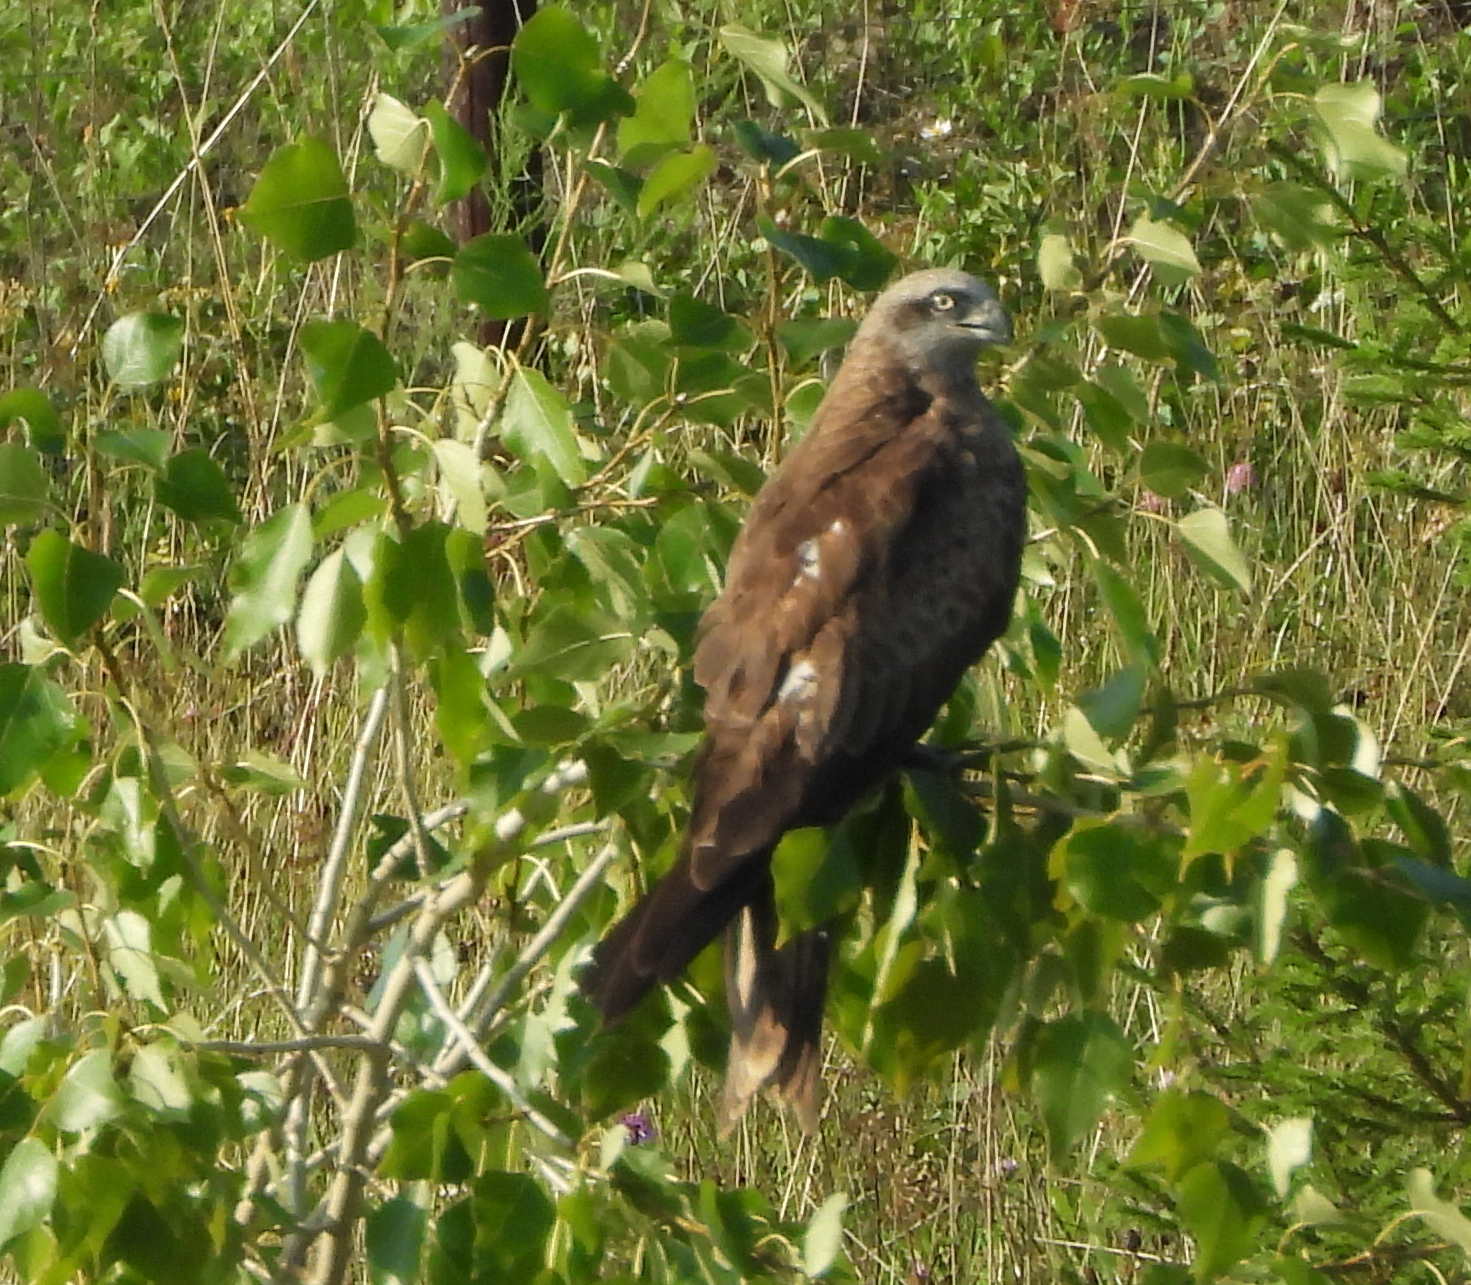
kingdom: Animalia
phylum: Chordata
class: Aves
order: Accipitriformes
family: Accipitridae
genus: Milvus
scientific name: Milvus migrans
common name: Black kite
